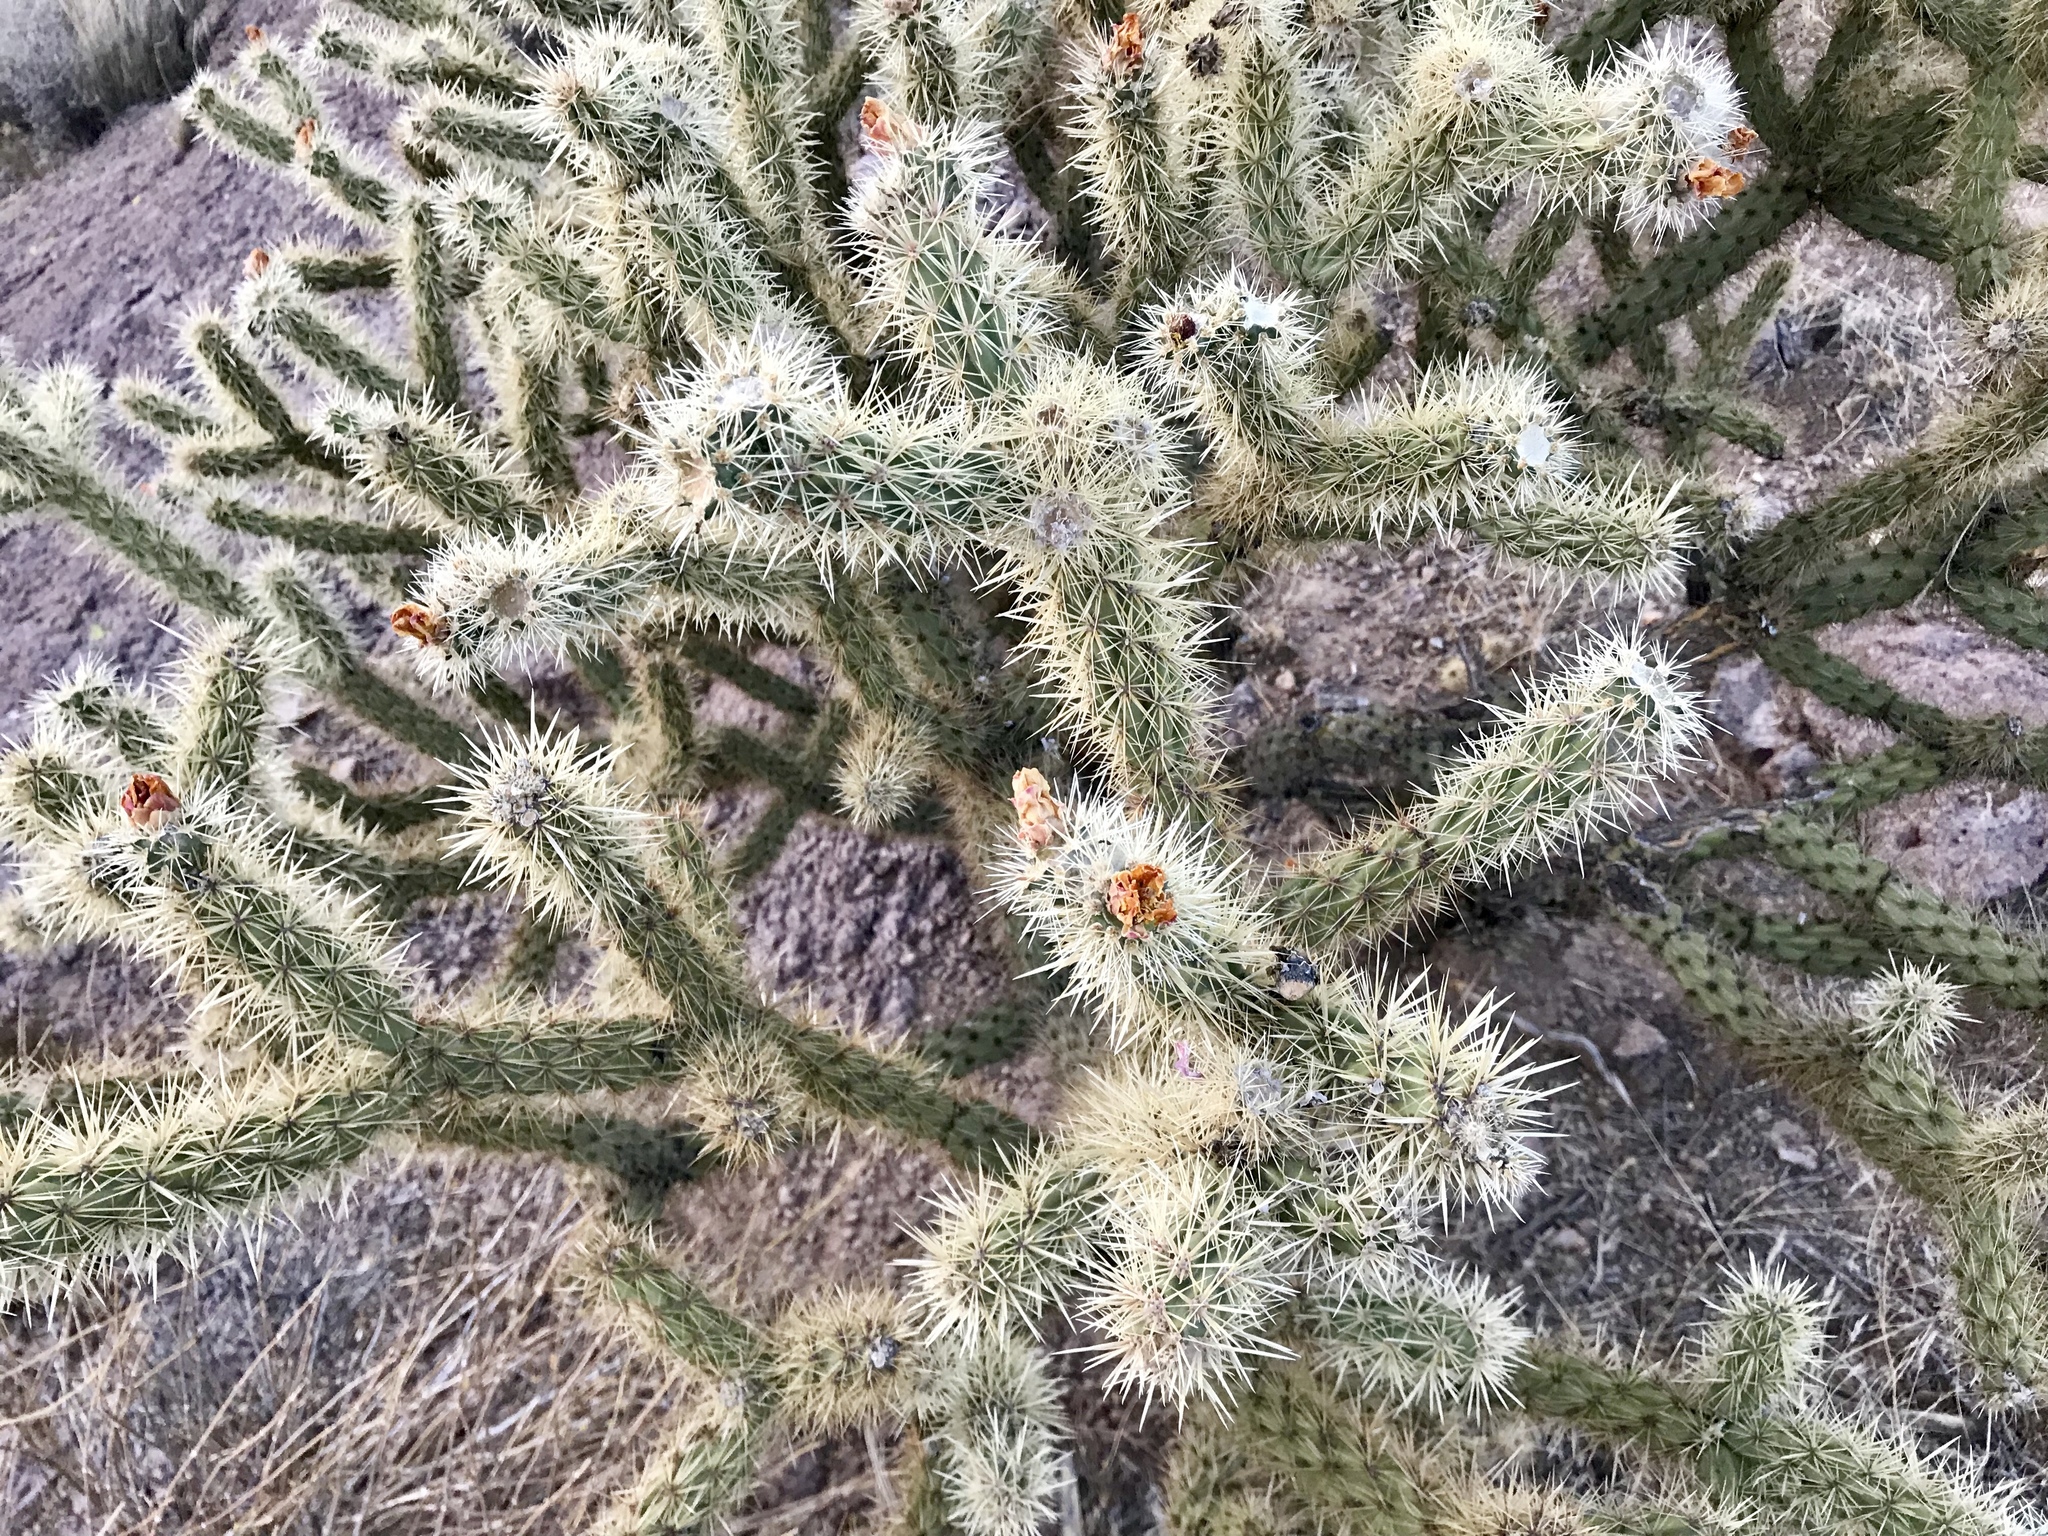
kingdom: Plantae
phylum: Tracheophyta
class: Magnoliopsida
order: Caryophyllales
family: Cactaceae
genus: Cylindropuntia
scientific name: Cylindropuntia echinocarpa
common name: Ground cholla
